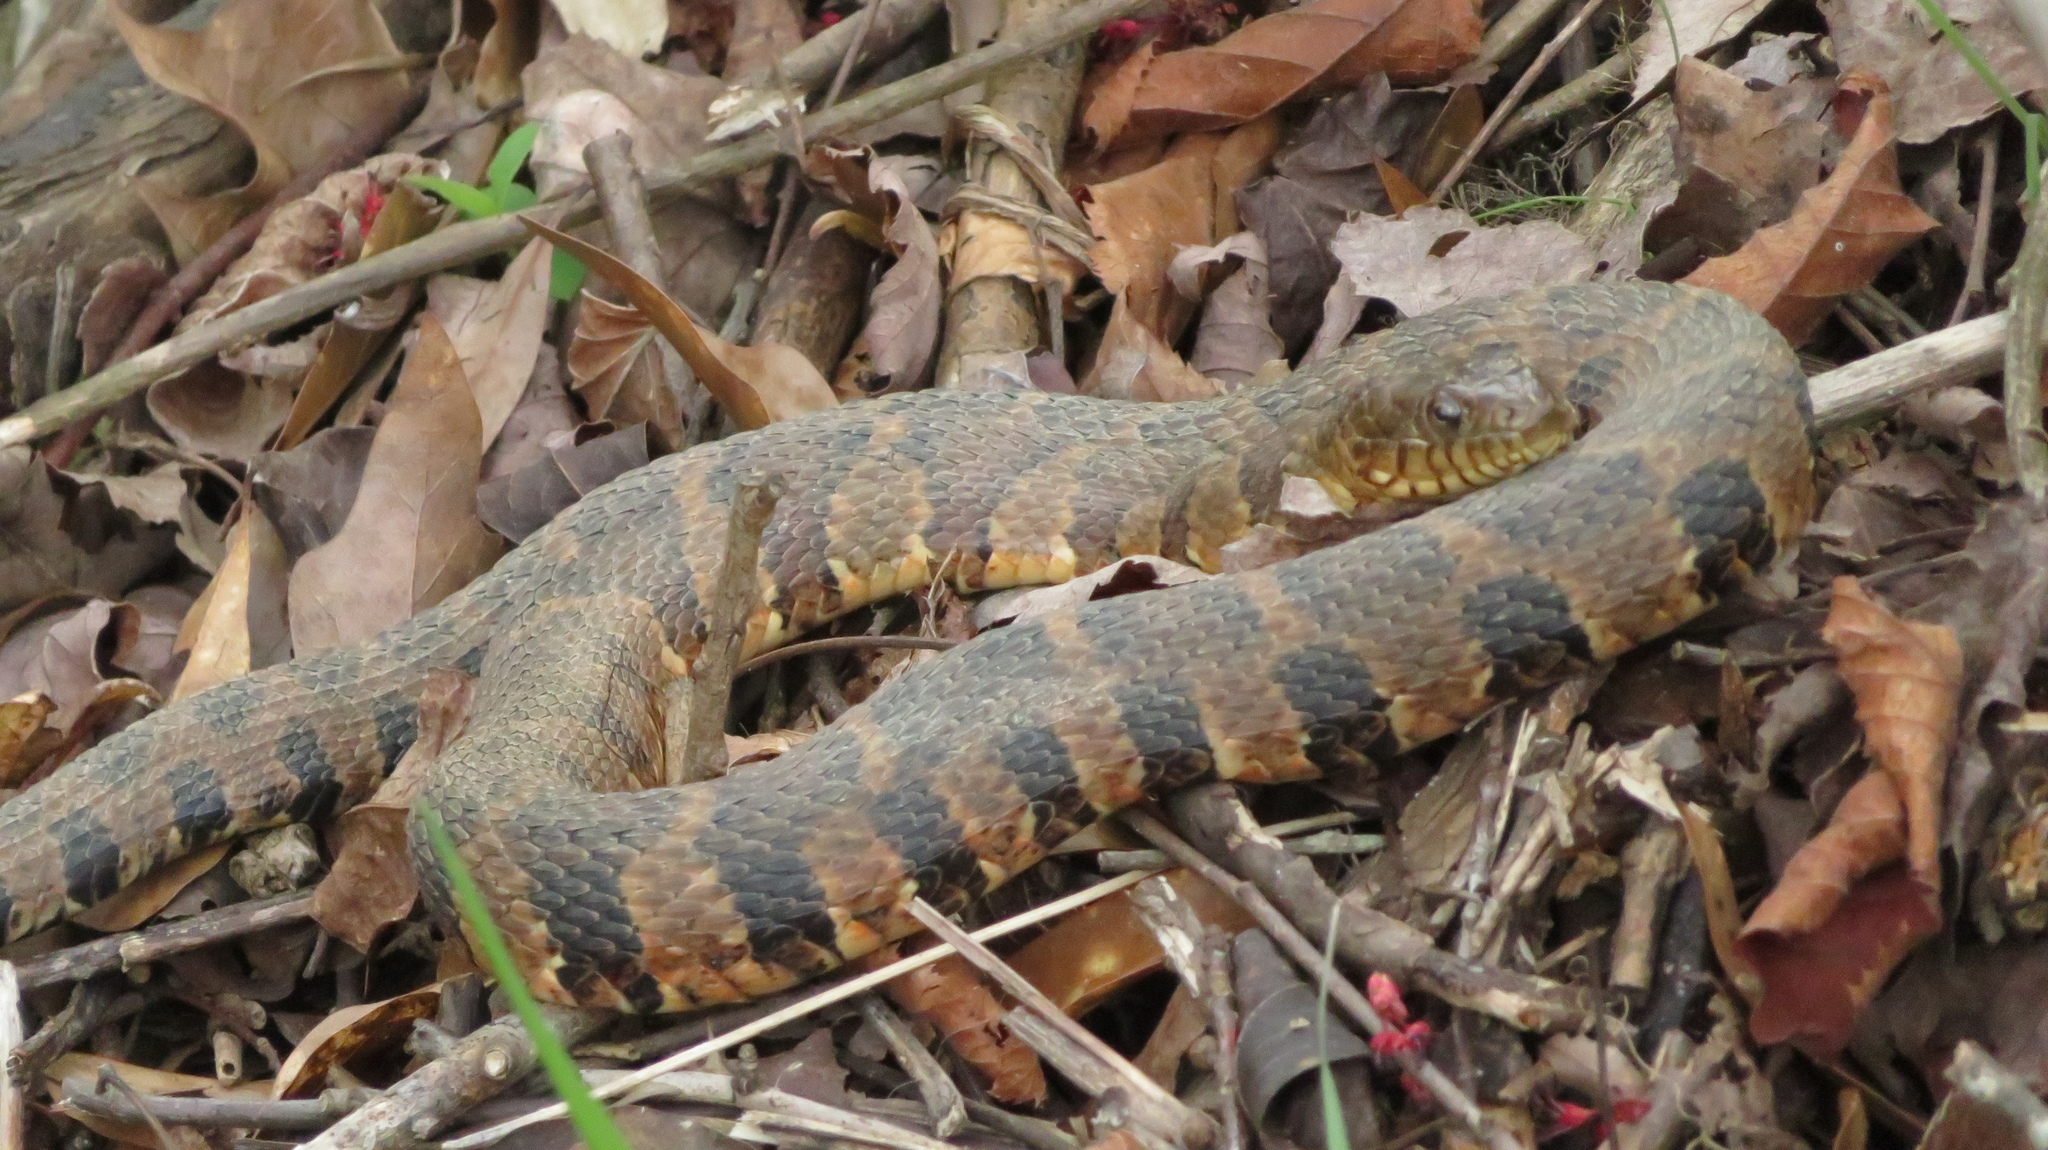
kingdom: Animalia
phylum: Chordata
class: Squamata
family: Colubridae
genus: Nerodia
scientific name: Nerodia sipedon
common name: Northern water snake
